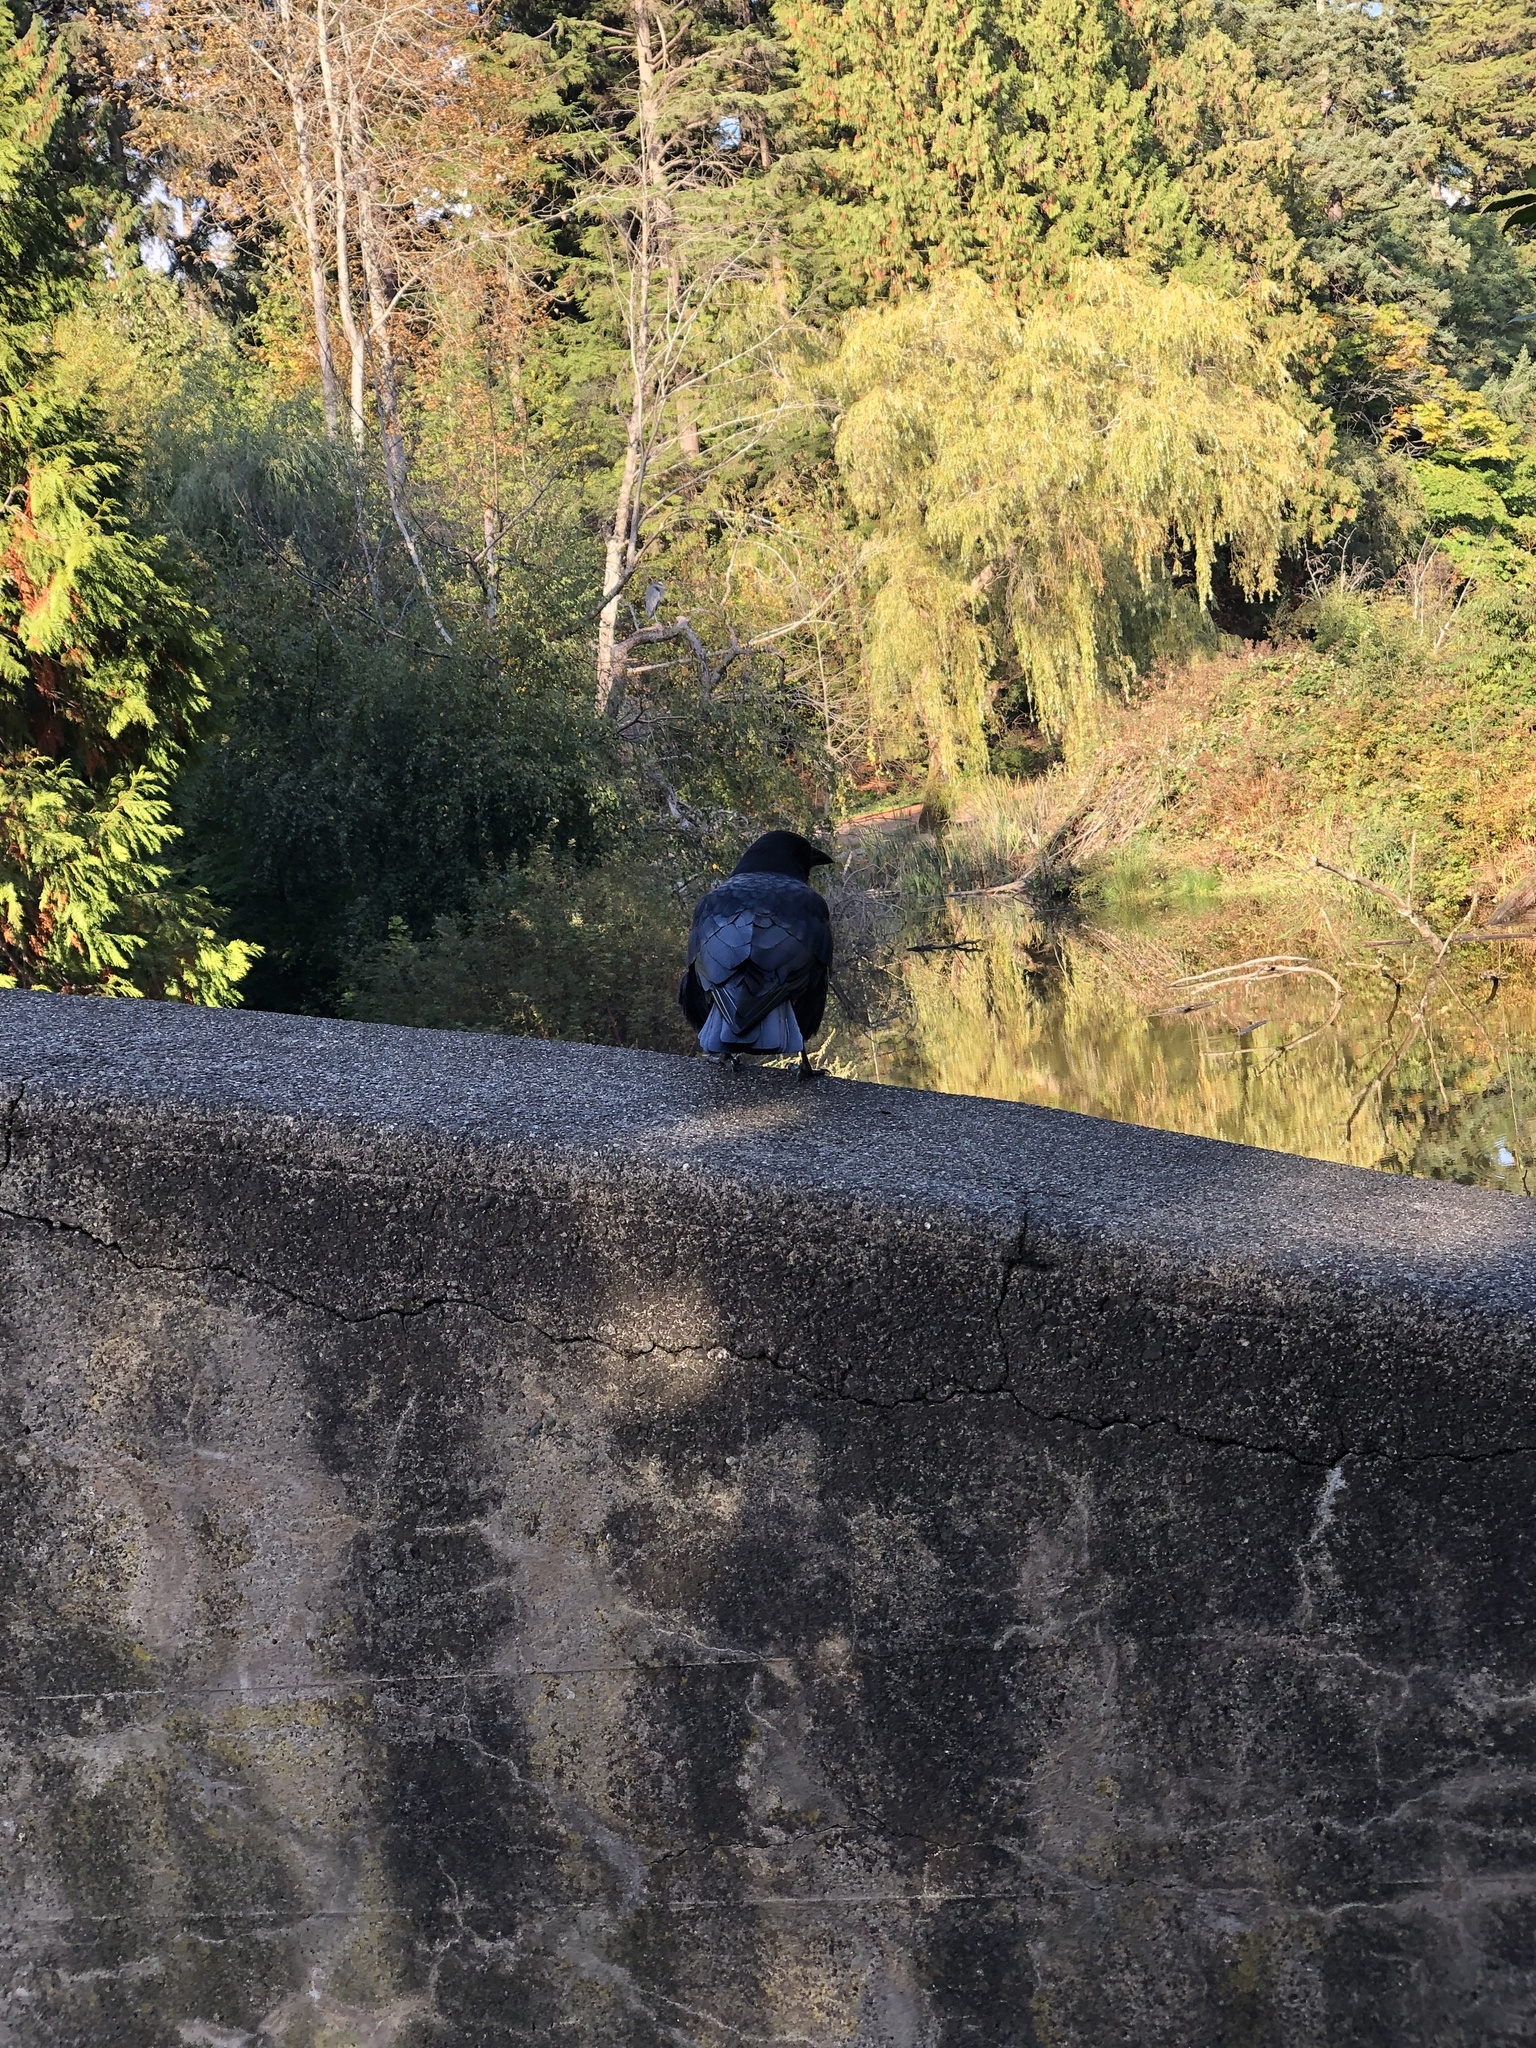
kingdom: Animalia
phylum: Chordata
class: Aves
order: Passeriformes
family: Corvidae
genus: Corvus
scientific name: Corvus brachyrhynchos
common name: American crow
